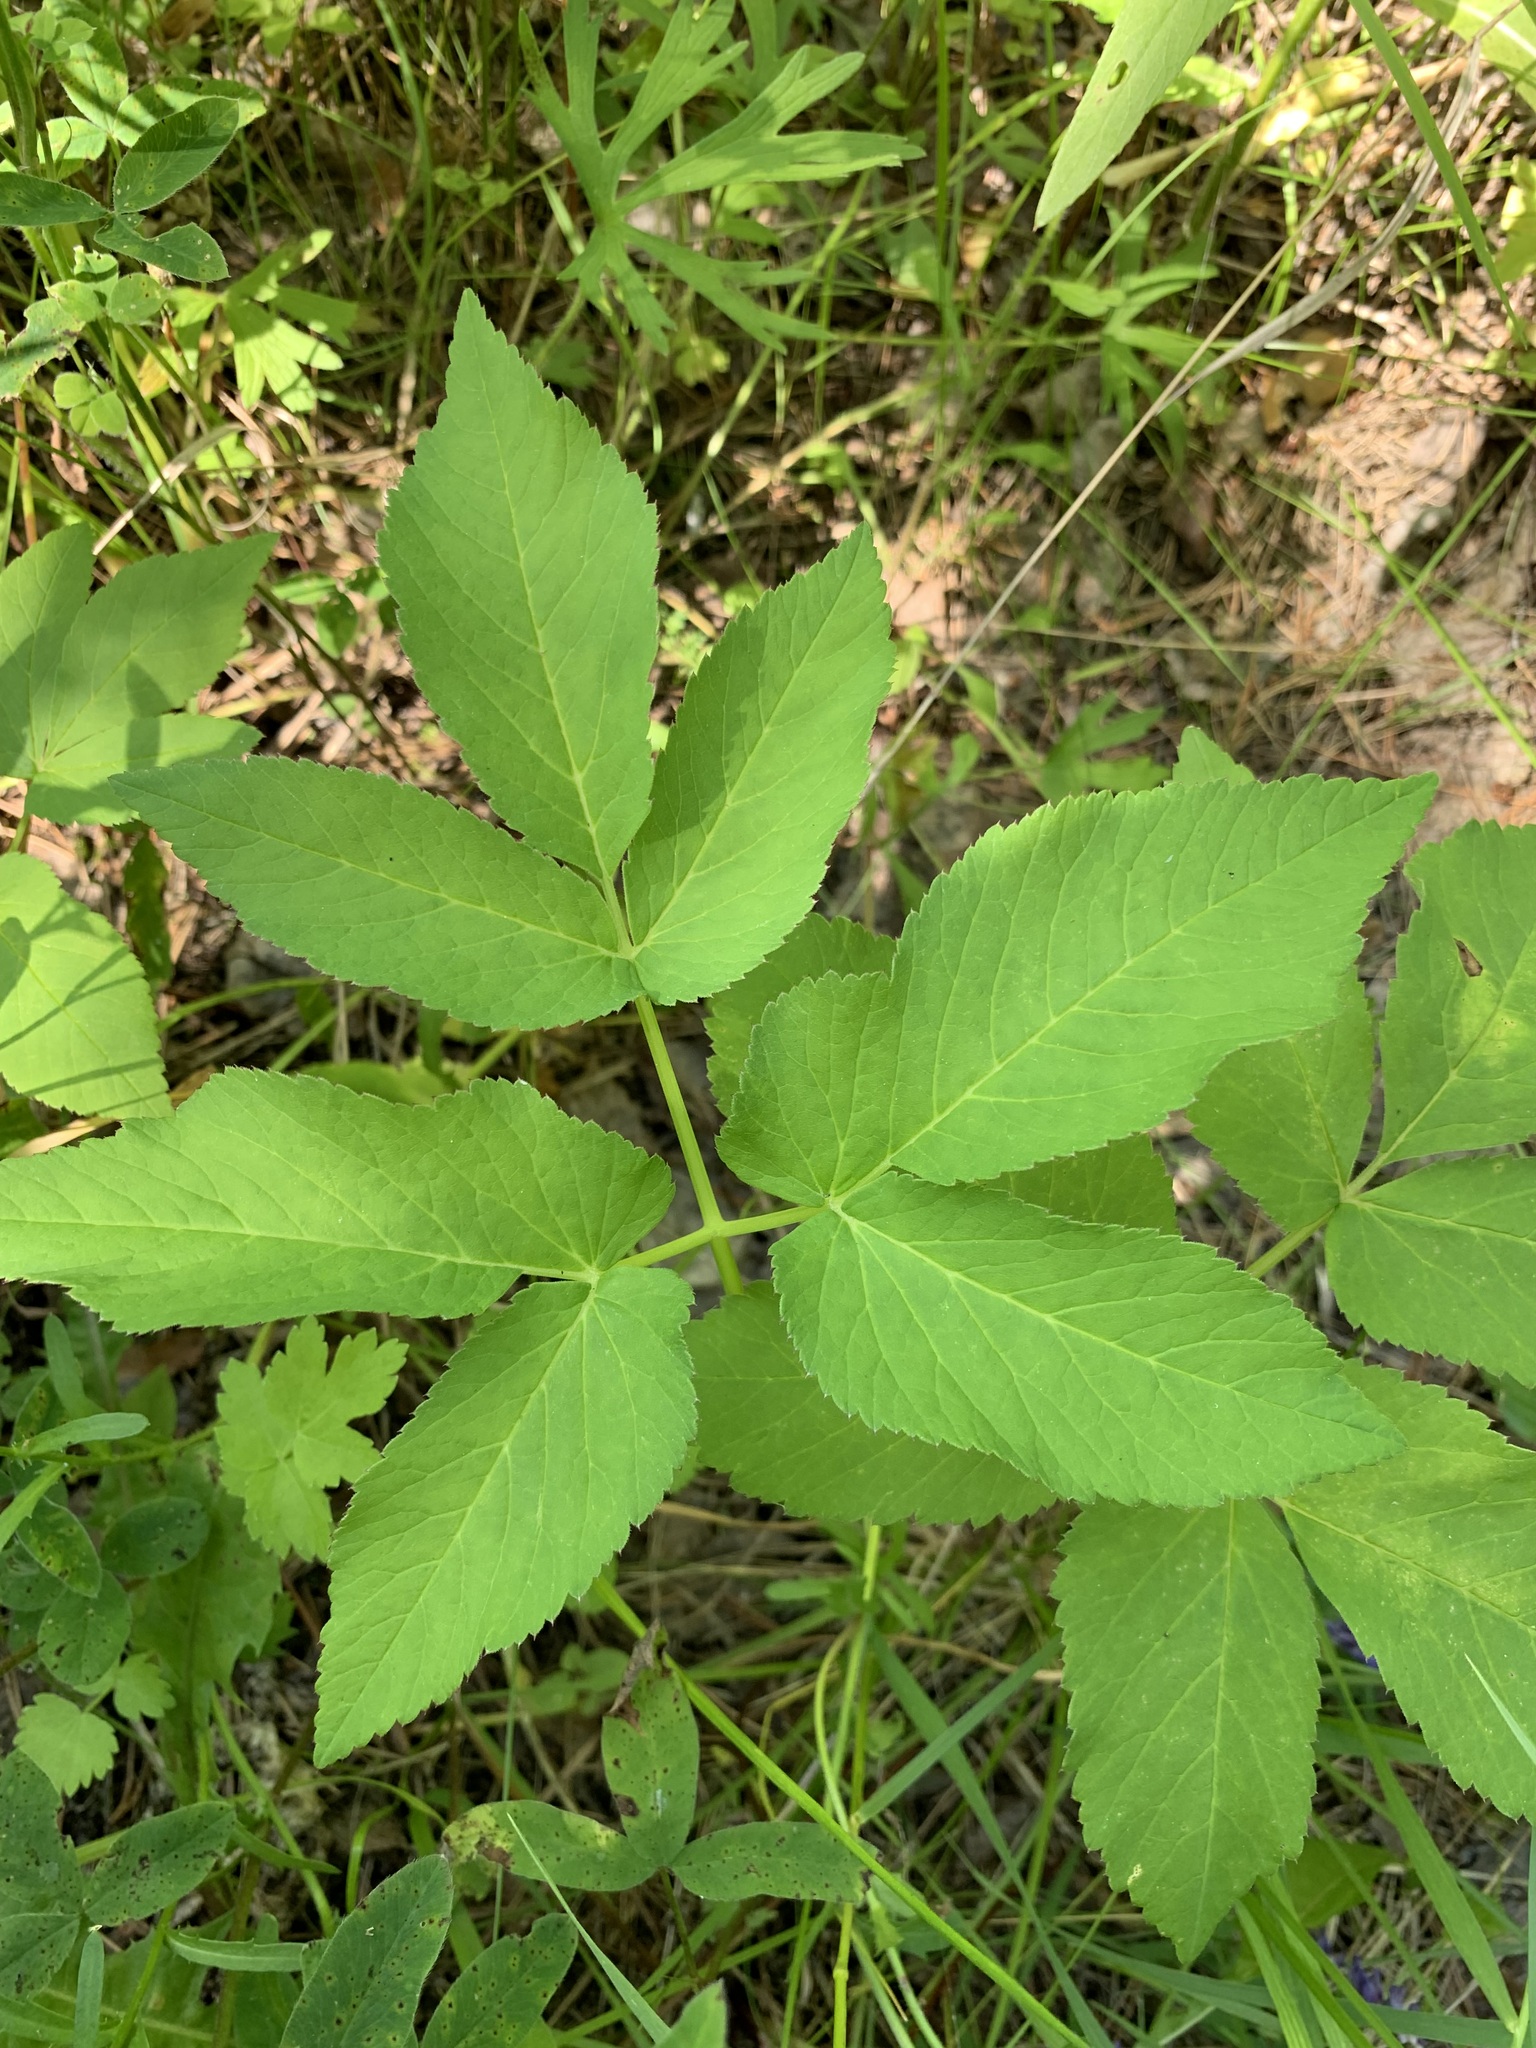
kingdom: Plantae
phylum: Tracheophyta
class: Magnoliopsida
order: Apiales
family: Apiaceae
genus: Aegopodium
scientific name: Aegopodium podagraria
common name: Ground-elder
